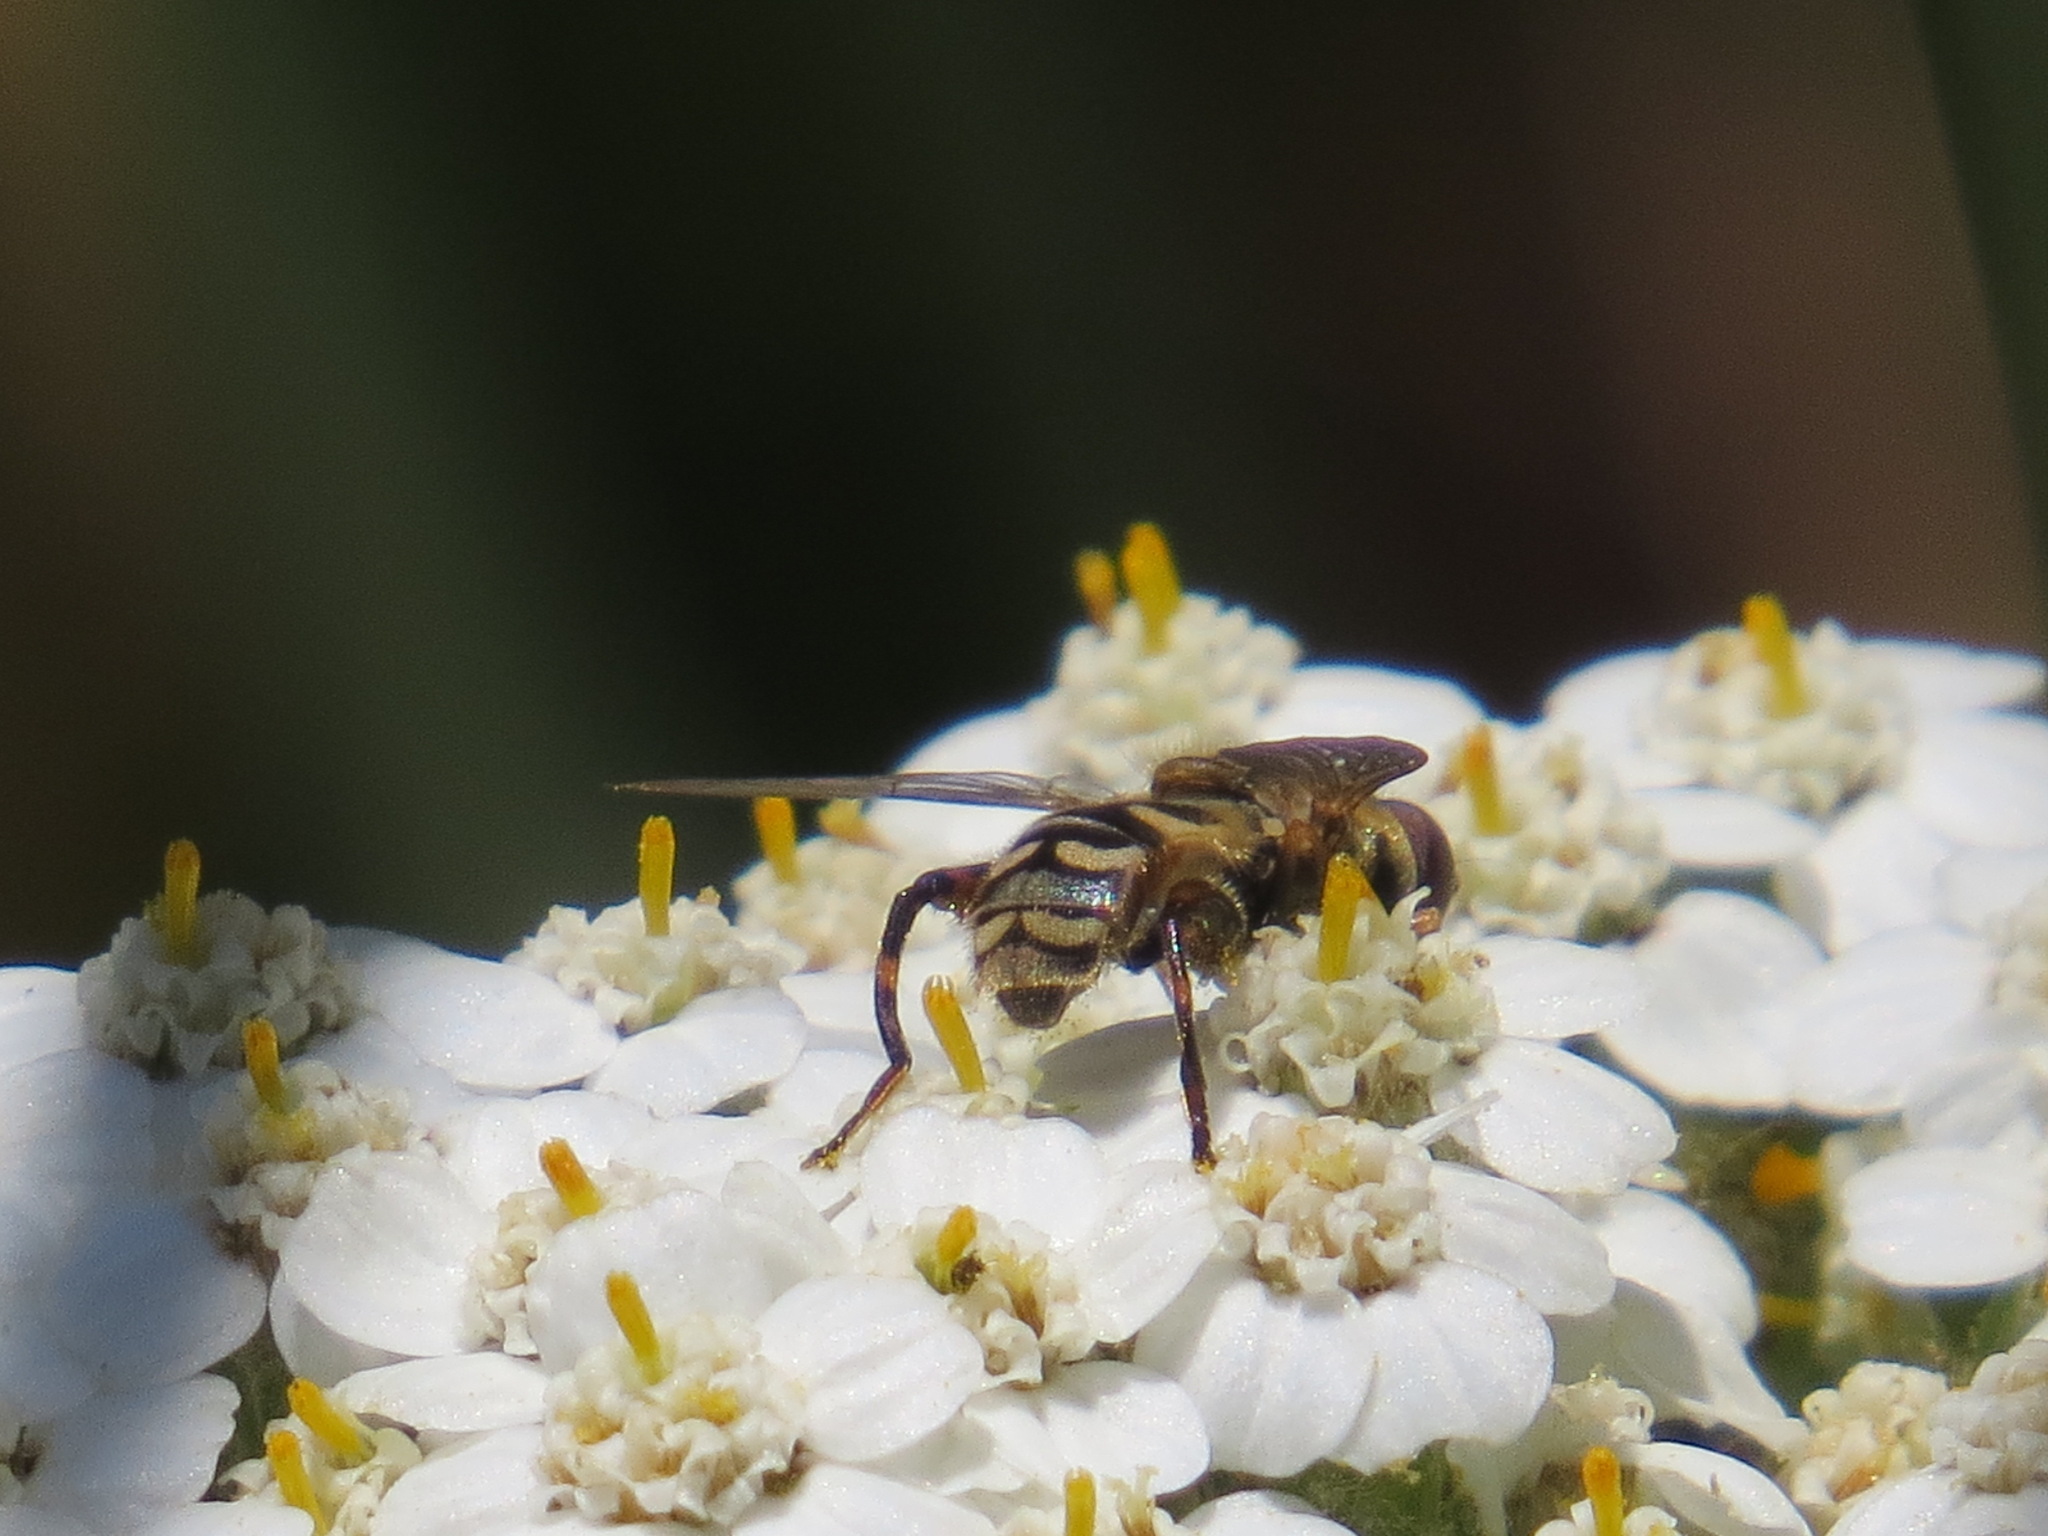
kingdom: Animalia
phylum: Arthropoda
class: Insecta
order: Diptera
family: Syrphidae
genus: Anasimyia
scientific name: Anasimyia chrysostomus
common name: Lump-legged swamp fly
